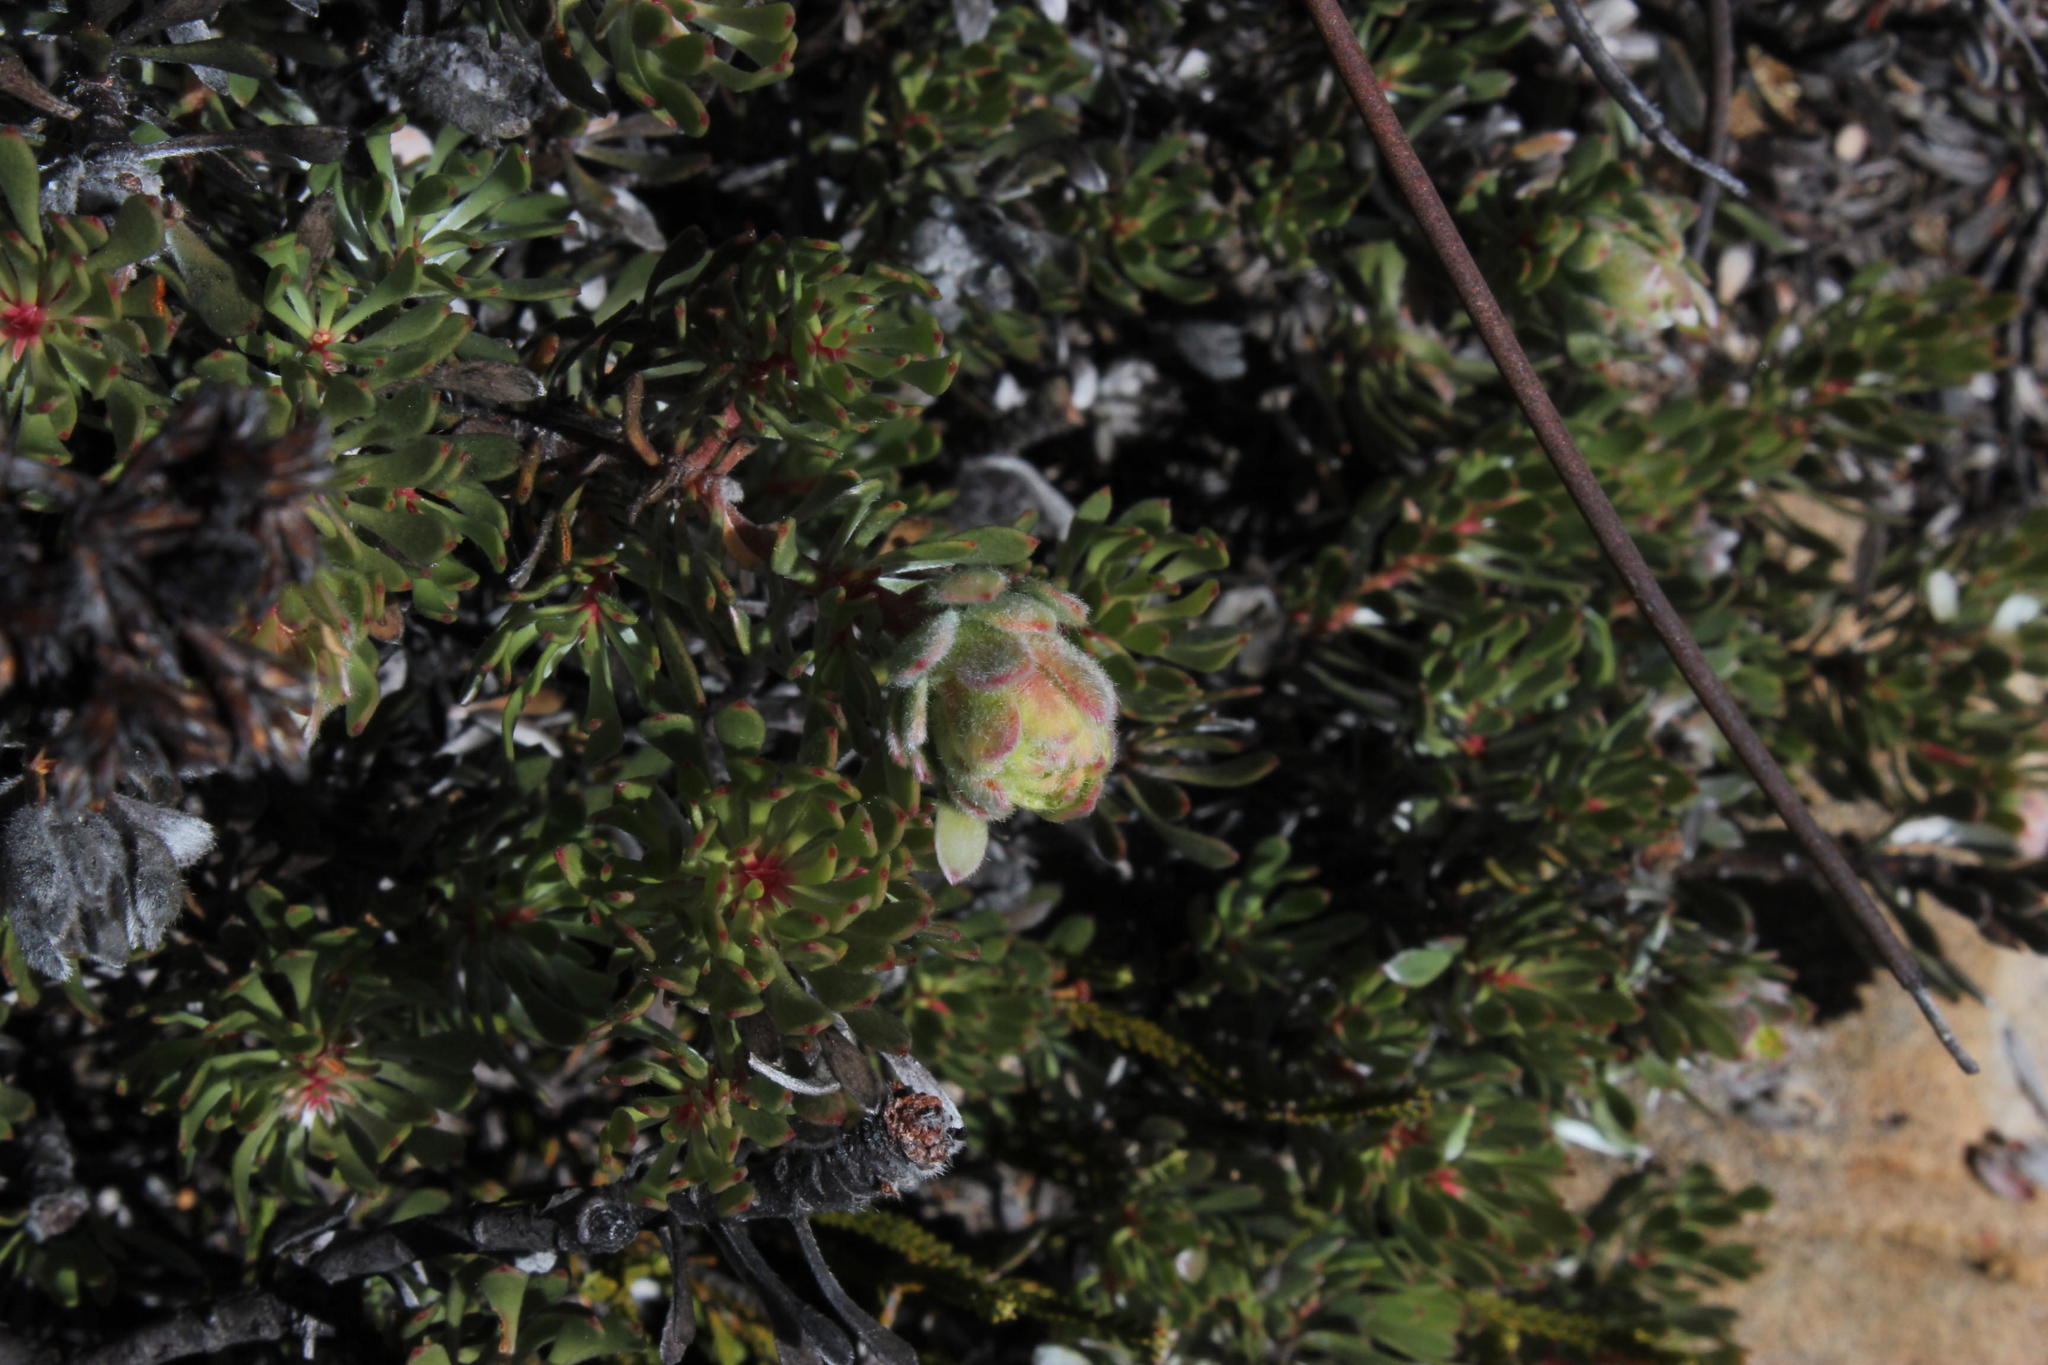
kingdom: Plantae
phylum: Tracheophyta
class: Magnoliopsida
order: Proteales
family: Proteaceae
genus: Leucadendron
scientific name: Leucadendron nitidum
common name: Bokkeveld conebush
